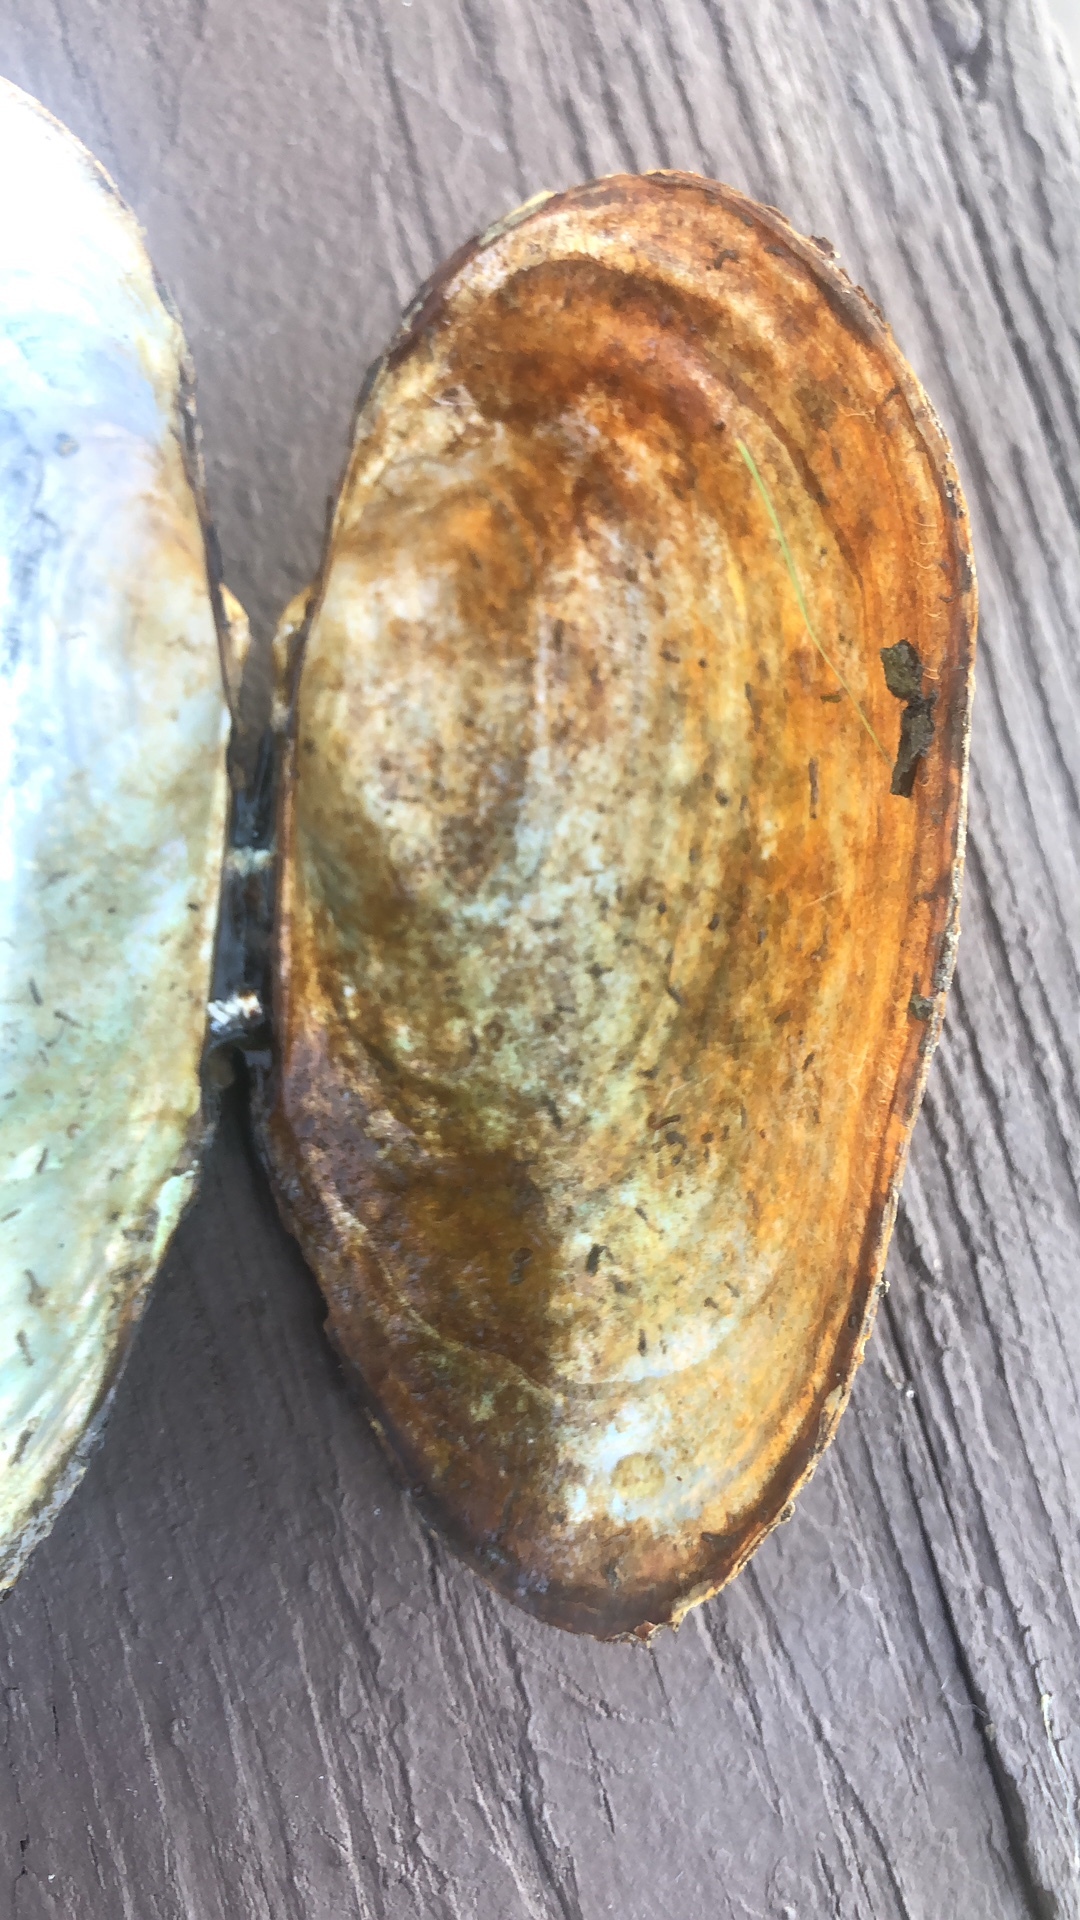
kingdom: Animalia
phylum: Mollusca
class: Bivalvia
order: Unionida
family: Unionidae
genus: Pyganodon
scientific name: Pyganodon grandis
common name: Giant floater
